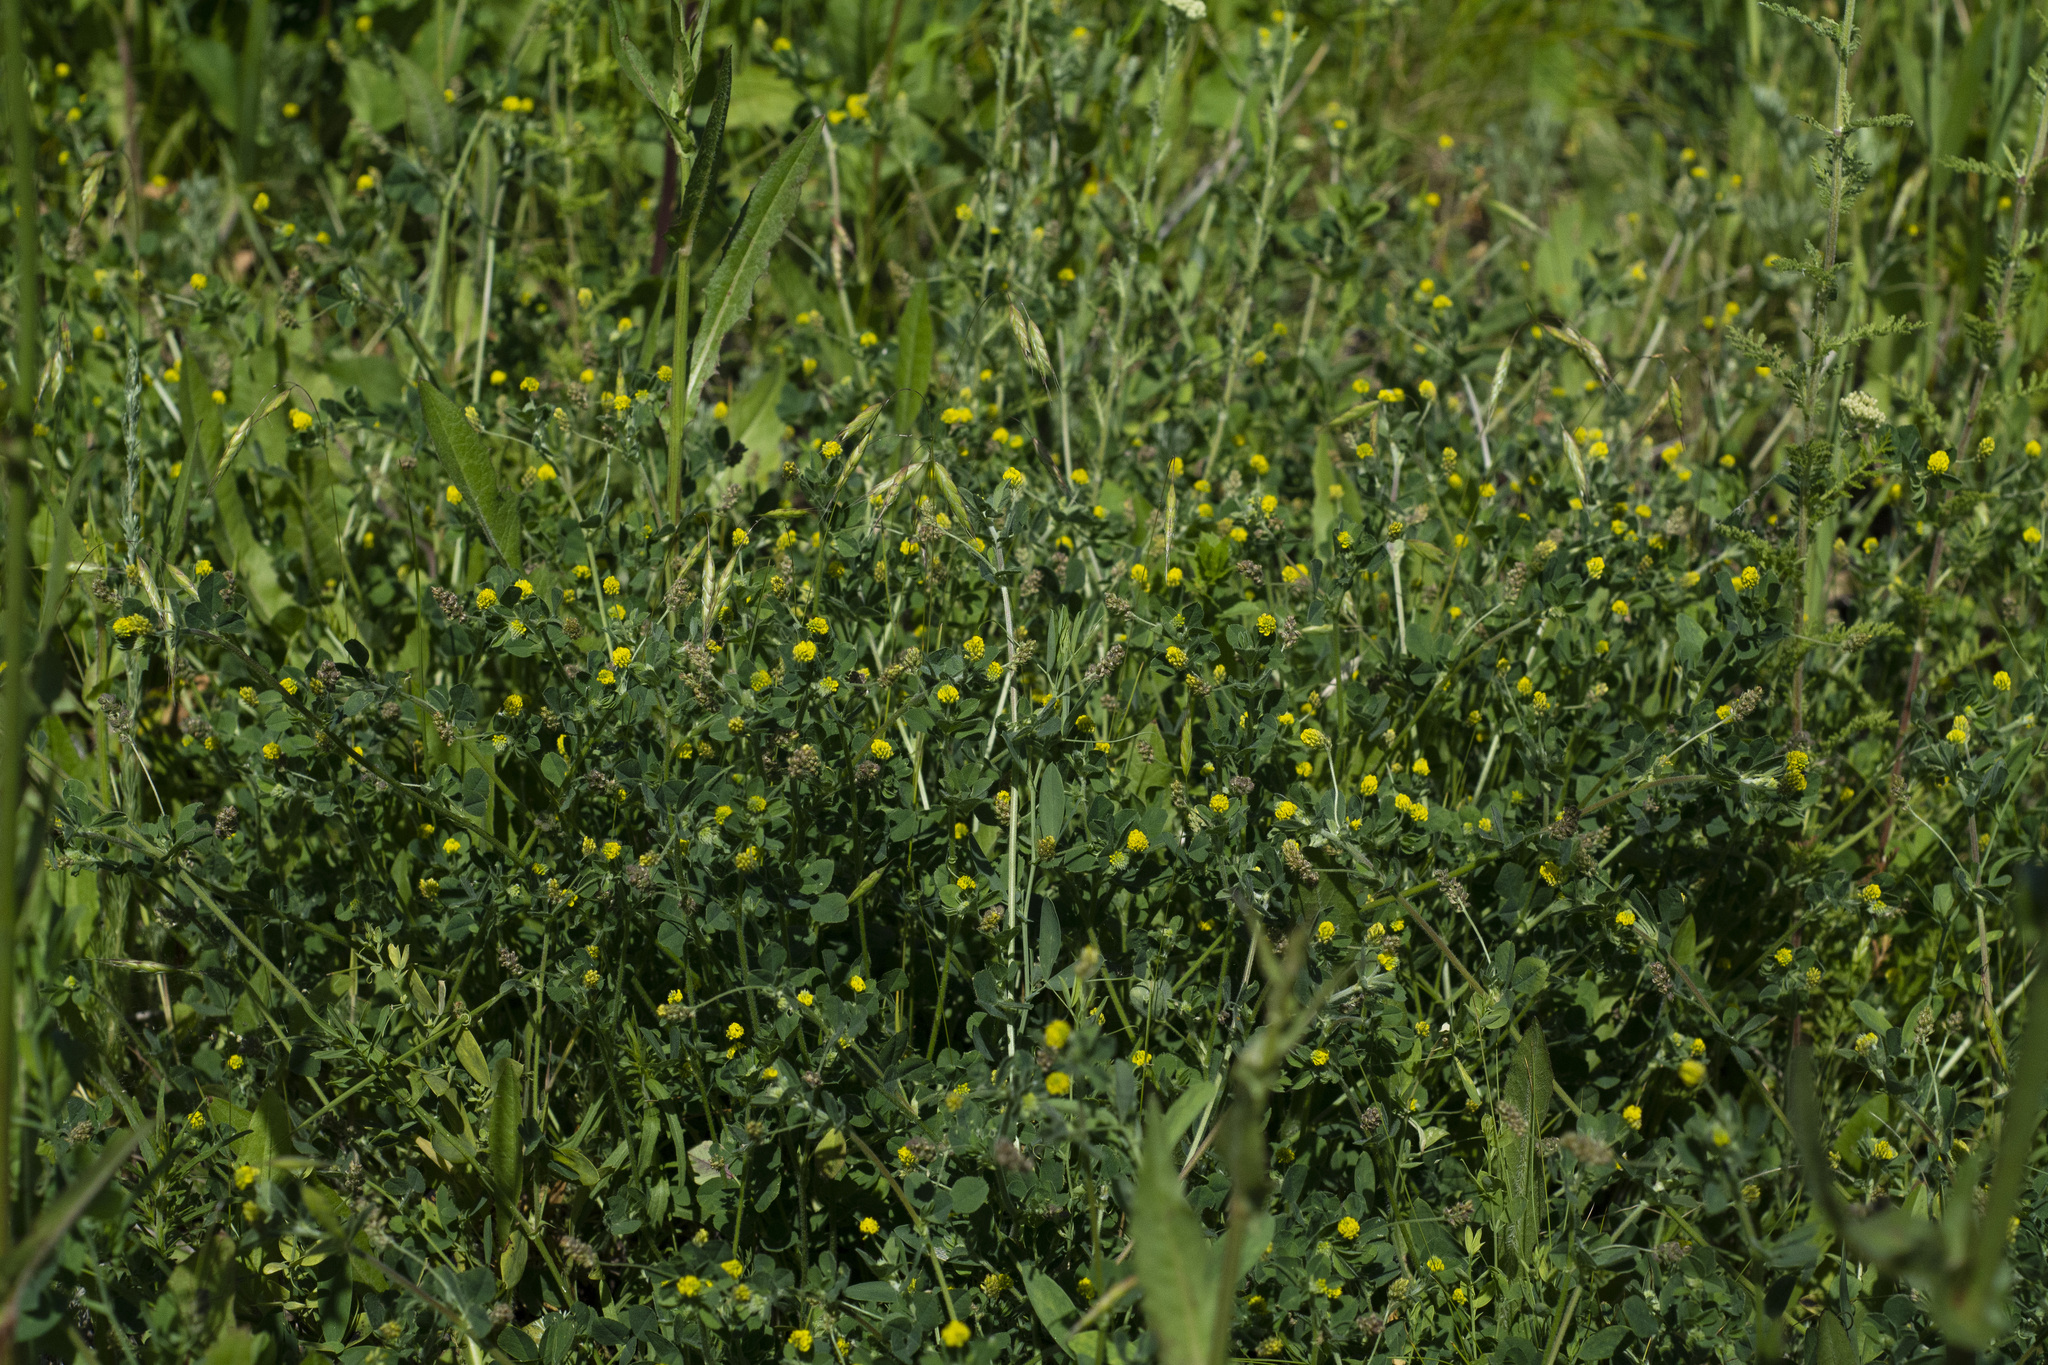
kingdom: Plantae
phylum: Tracheophyta
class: Magnoliopsida
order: Fabales
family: Fabaceae
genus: Medicago
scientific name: Medicago lupulina
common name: Black medick
